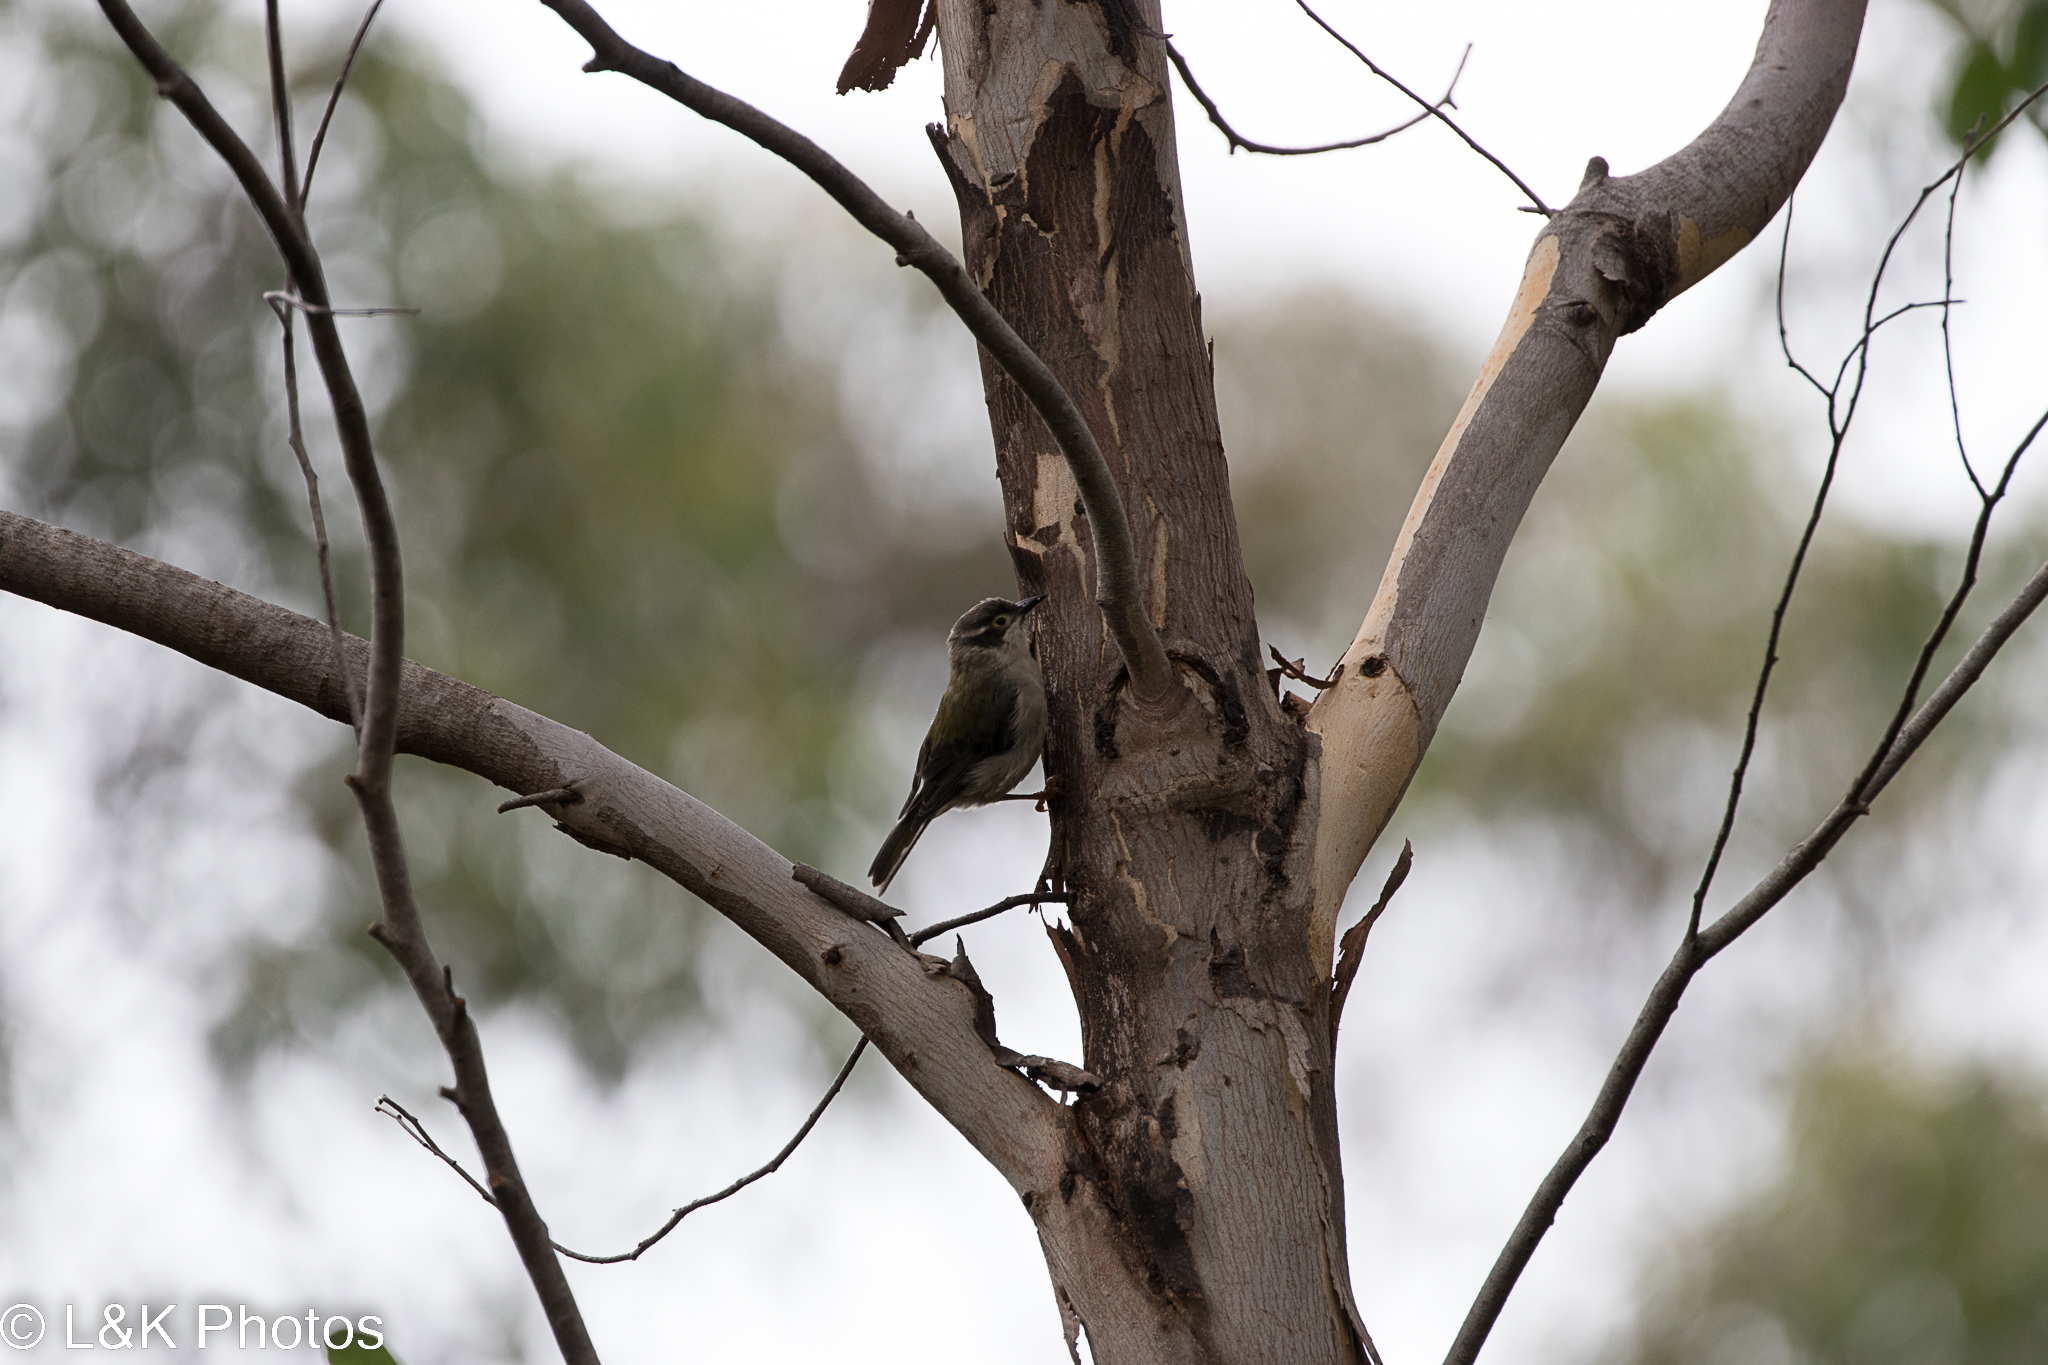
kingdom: Animalia
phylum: Chordata
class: Aves
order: Passeriformes
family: Meliphagidae
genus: Melithreptus
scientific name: Melithreptus brevirostris
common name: Brown-headed honeyeater
